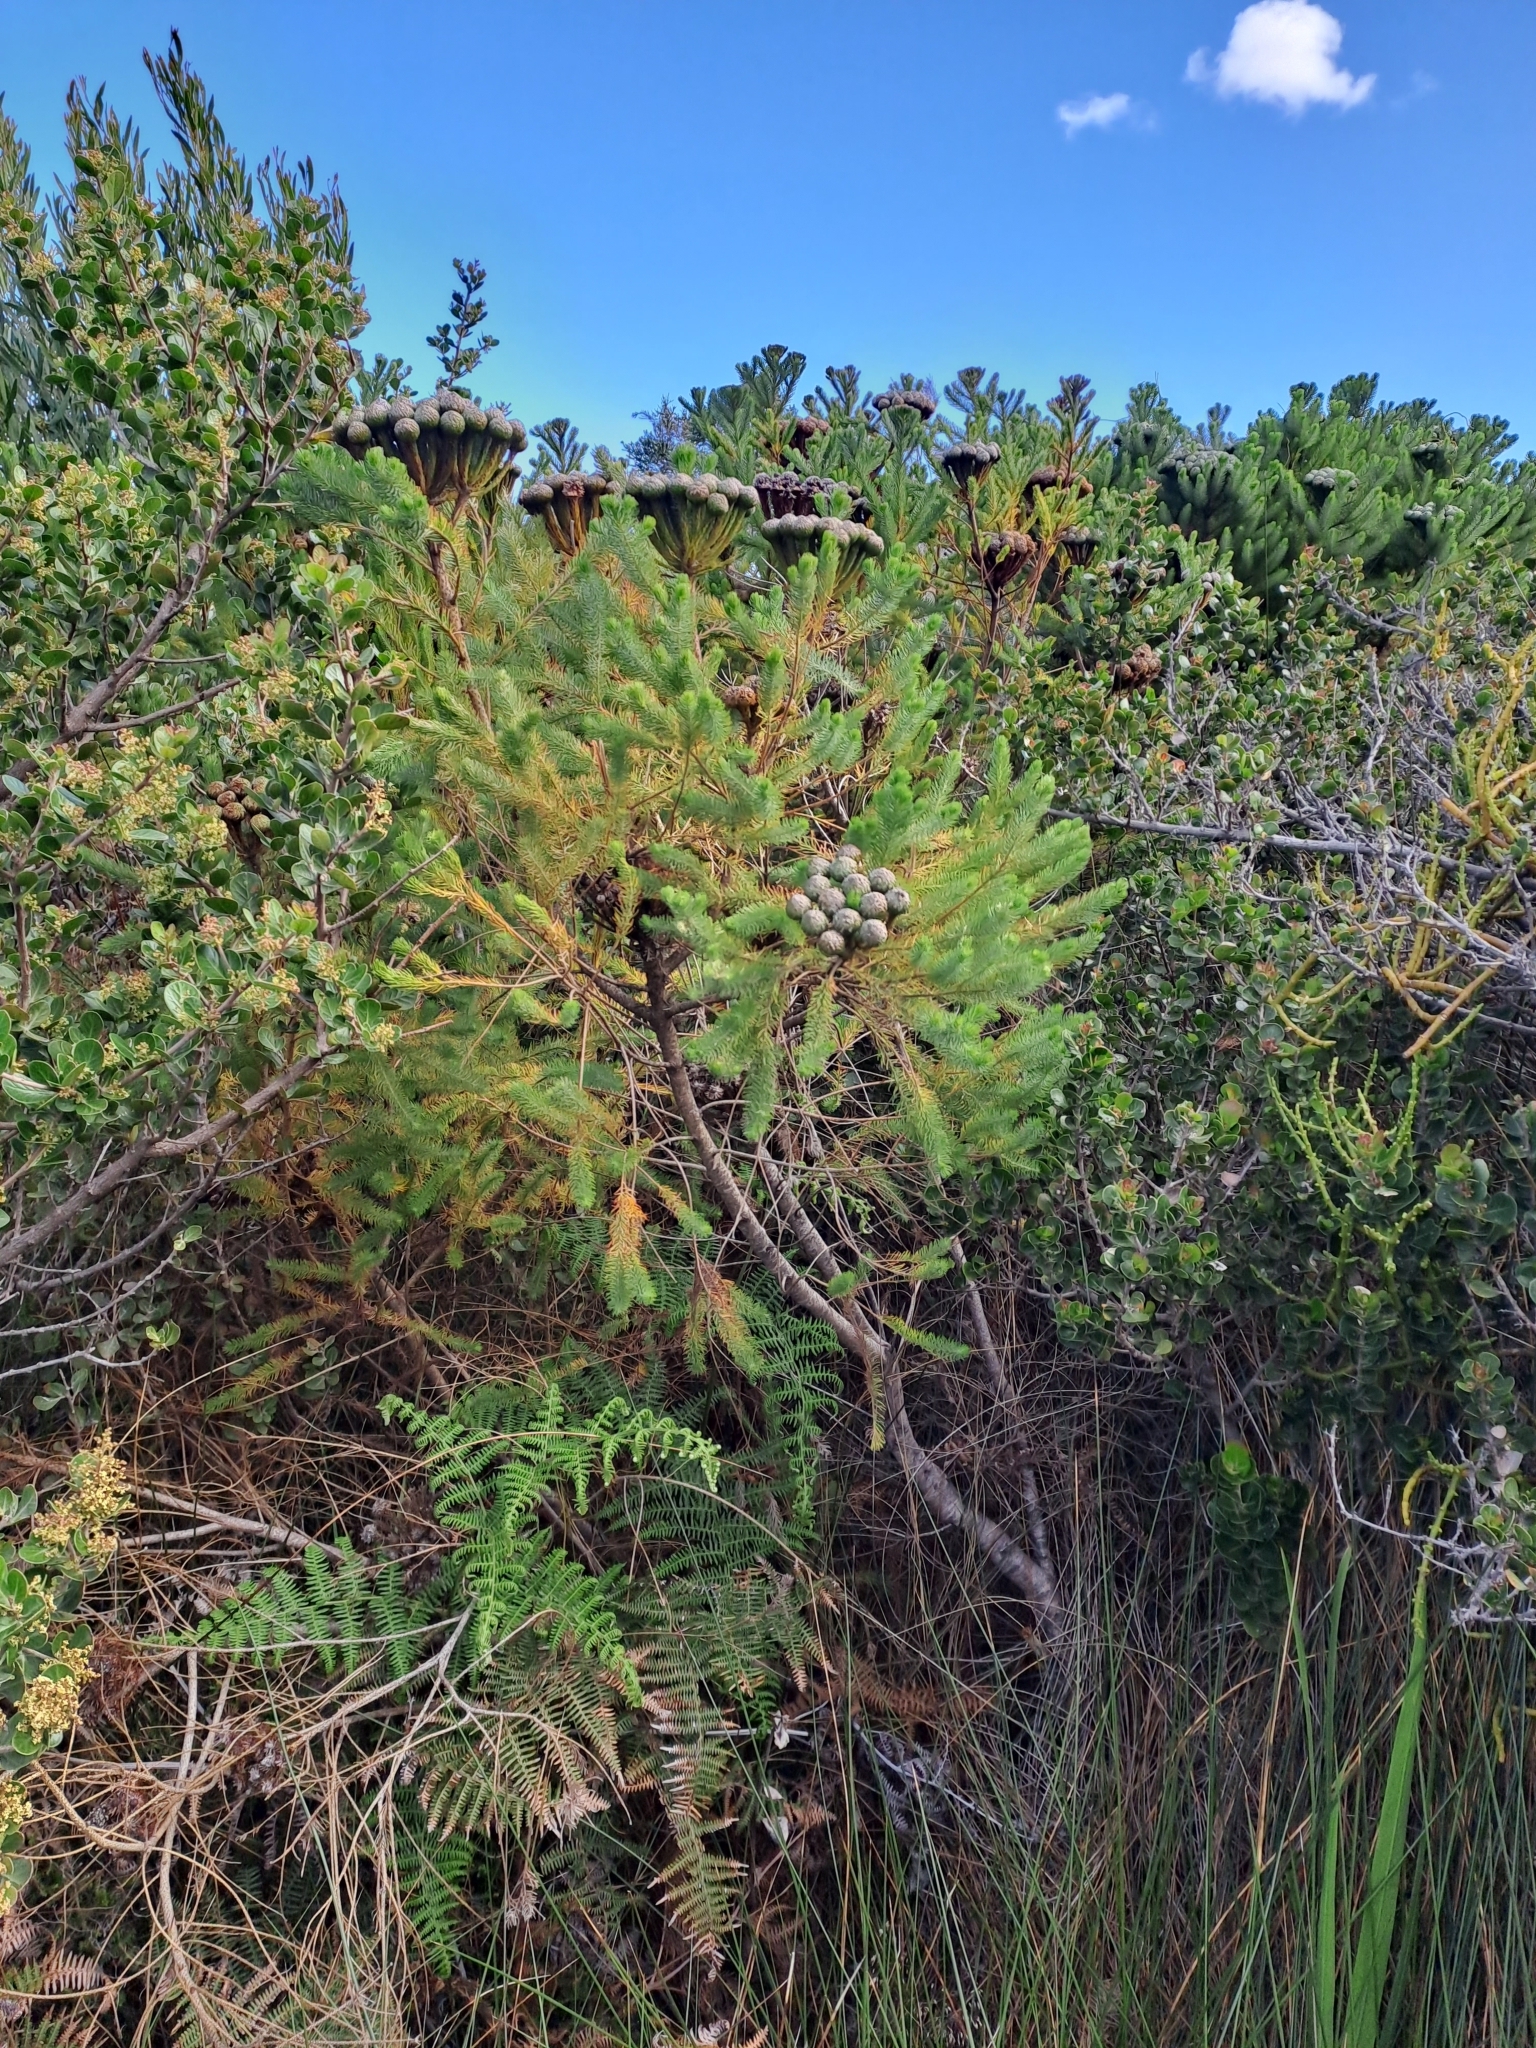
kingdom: Plantae
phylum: Tracheophyta
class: Magnoliopsida
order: Bruniales
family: Bruniaceae
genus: Berzelia
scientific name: Berzelia albiflora
